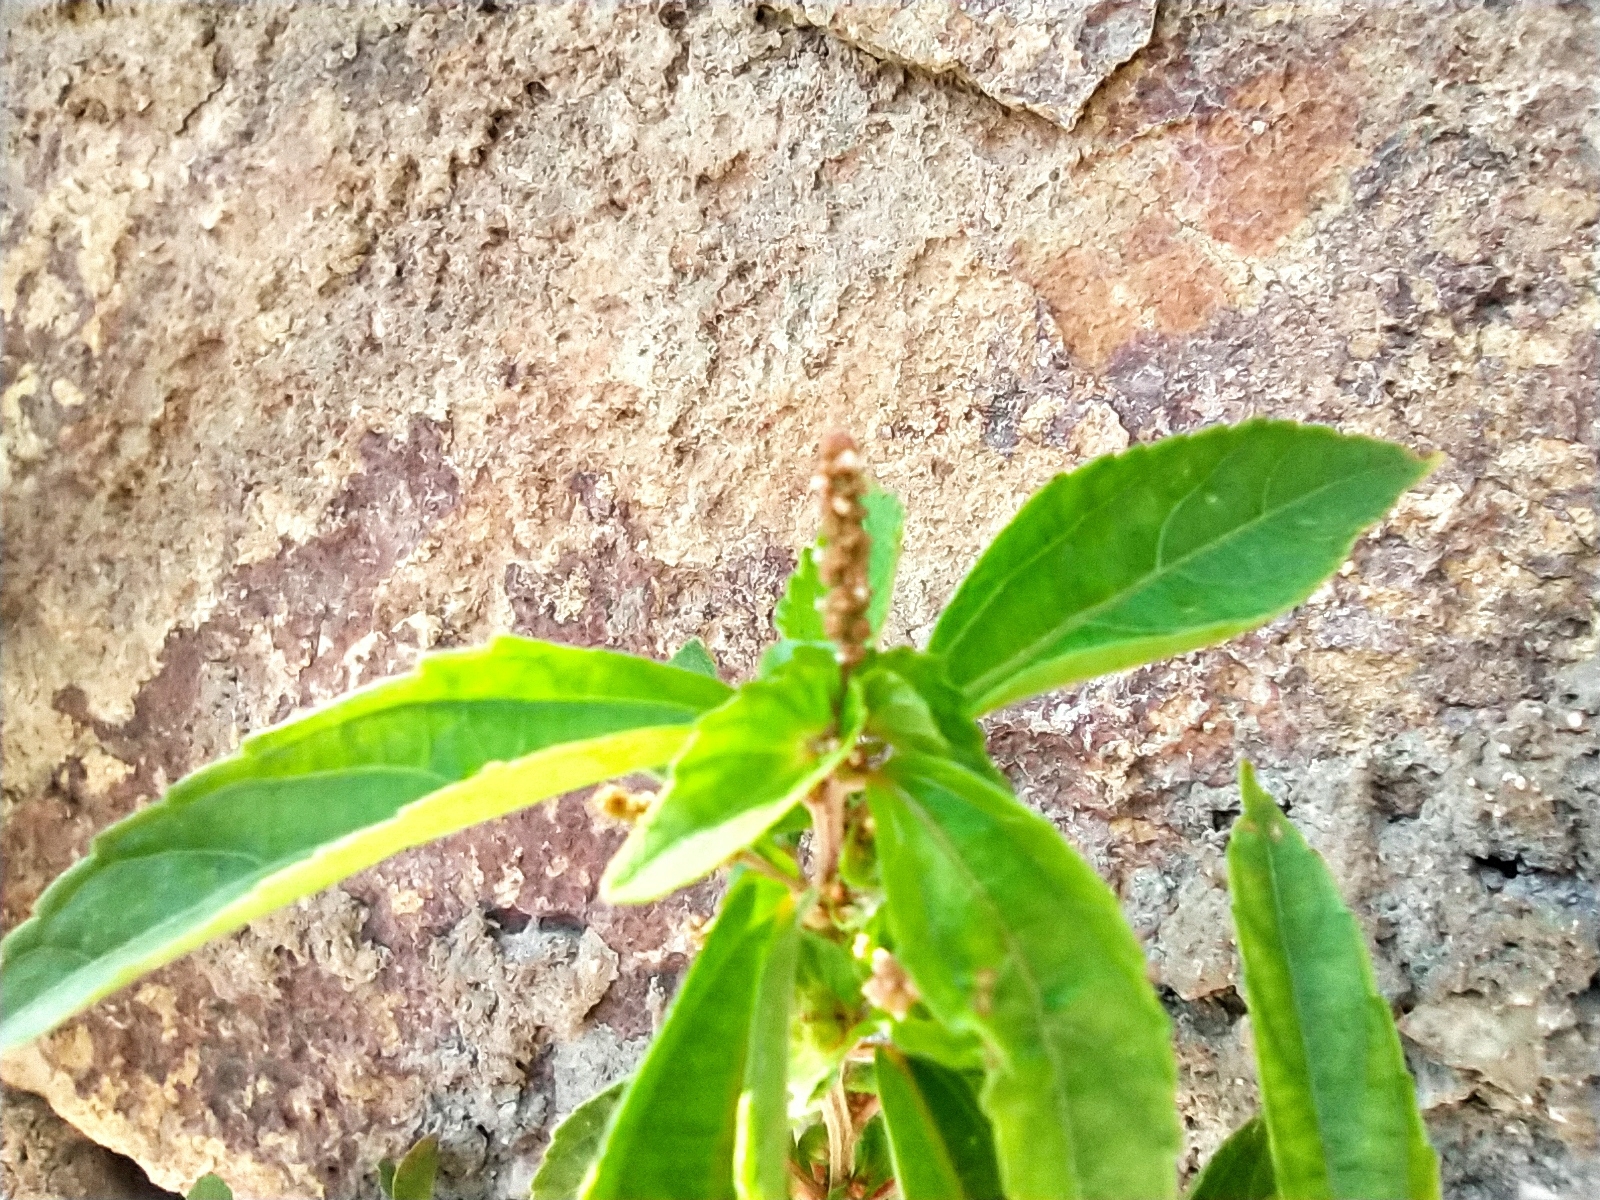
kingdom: Plantae
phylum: Tracheophyta
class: Magnoliopsida
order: Malpighiales
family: Euphorbiaceae
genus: Acalypha
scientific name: Acalypha australis
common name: Asian copperleaf
